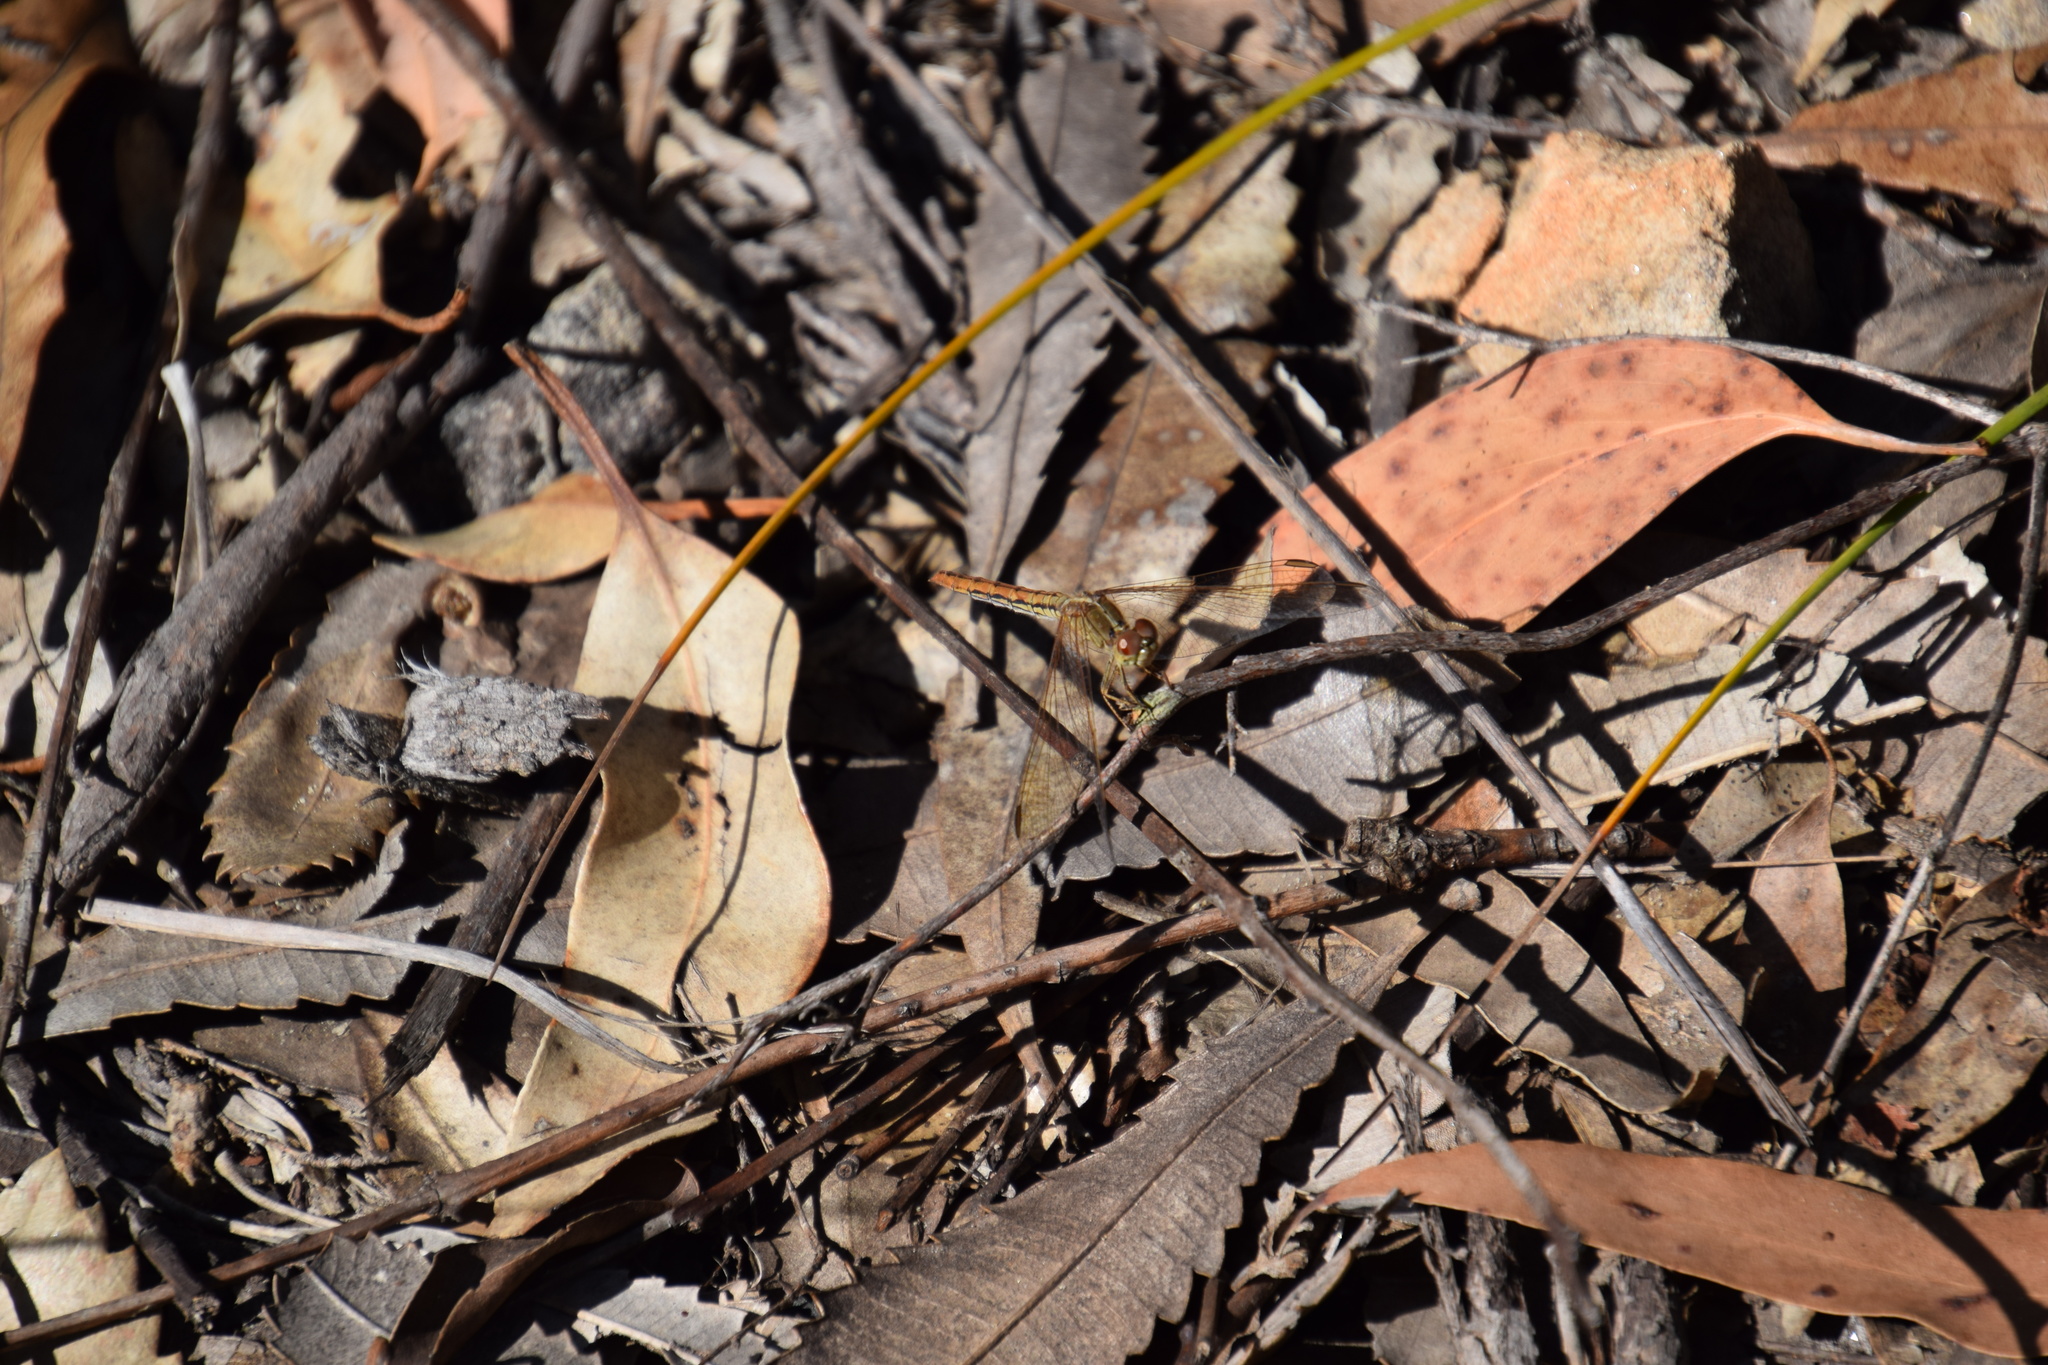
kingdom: Animalia
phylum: Arthropoda
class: Insecta
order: Odonata
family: Libellulidae
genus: Diplacodes
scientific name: Diplacodes haematodes
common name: Scarlet percher
